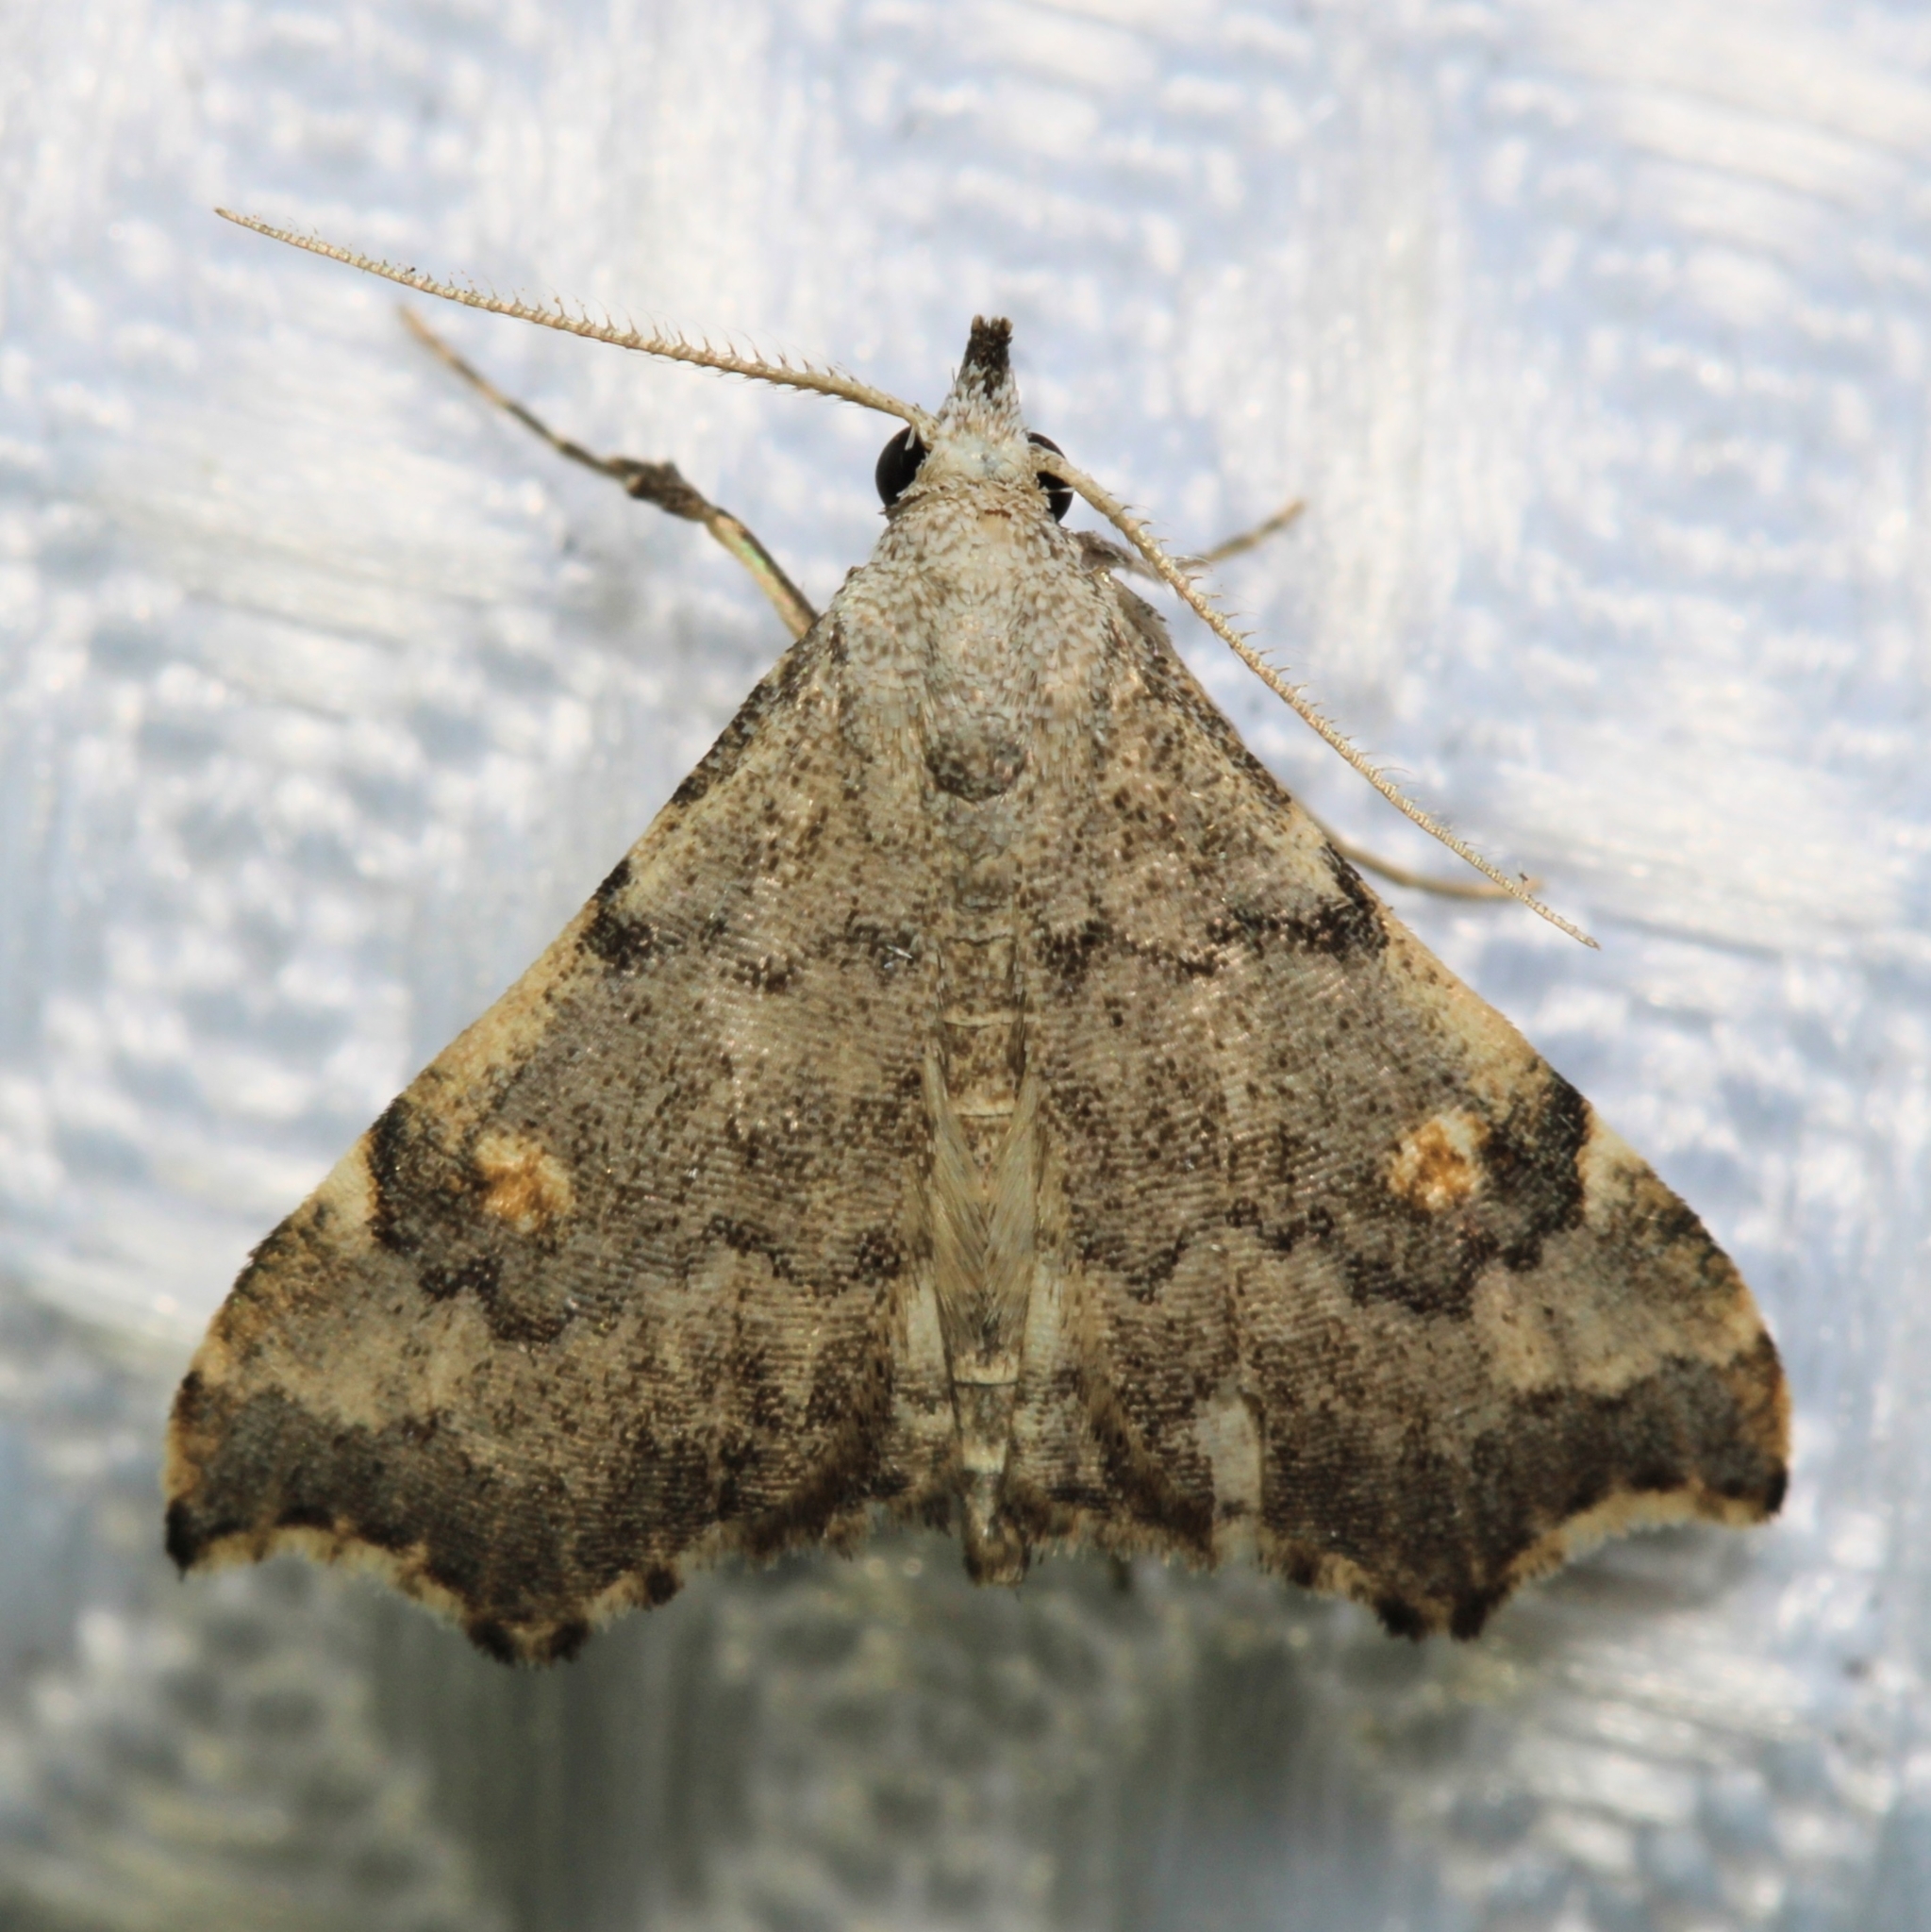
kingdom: Animalia
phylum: Arthropoda
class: Insecta
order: Lepidoptera
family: Erebidae
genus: Redectis
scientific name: Redectis pygmaea
